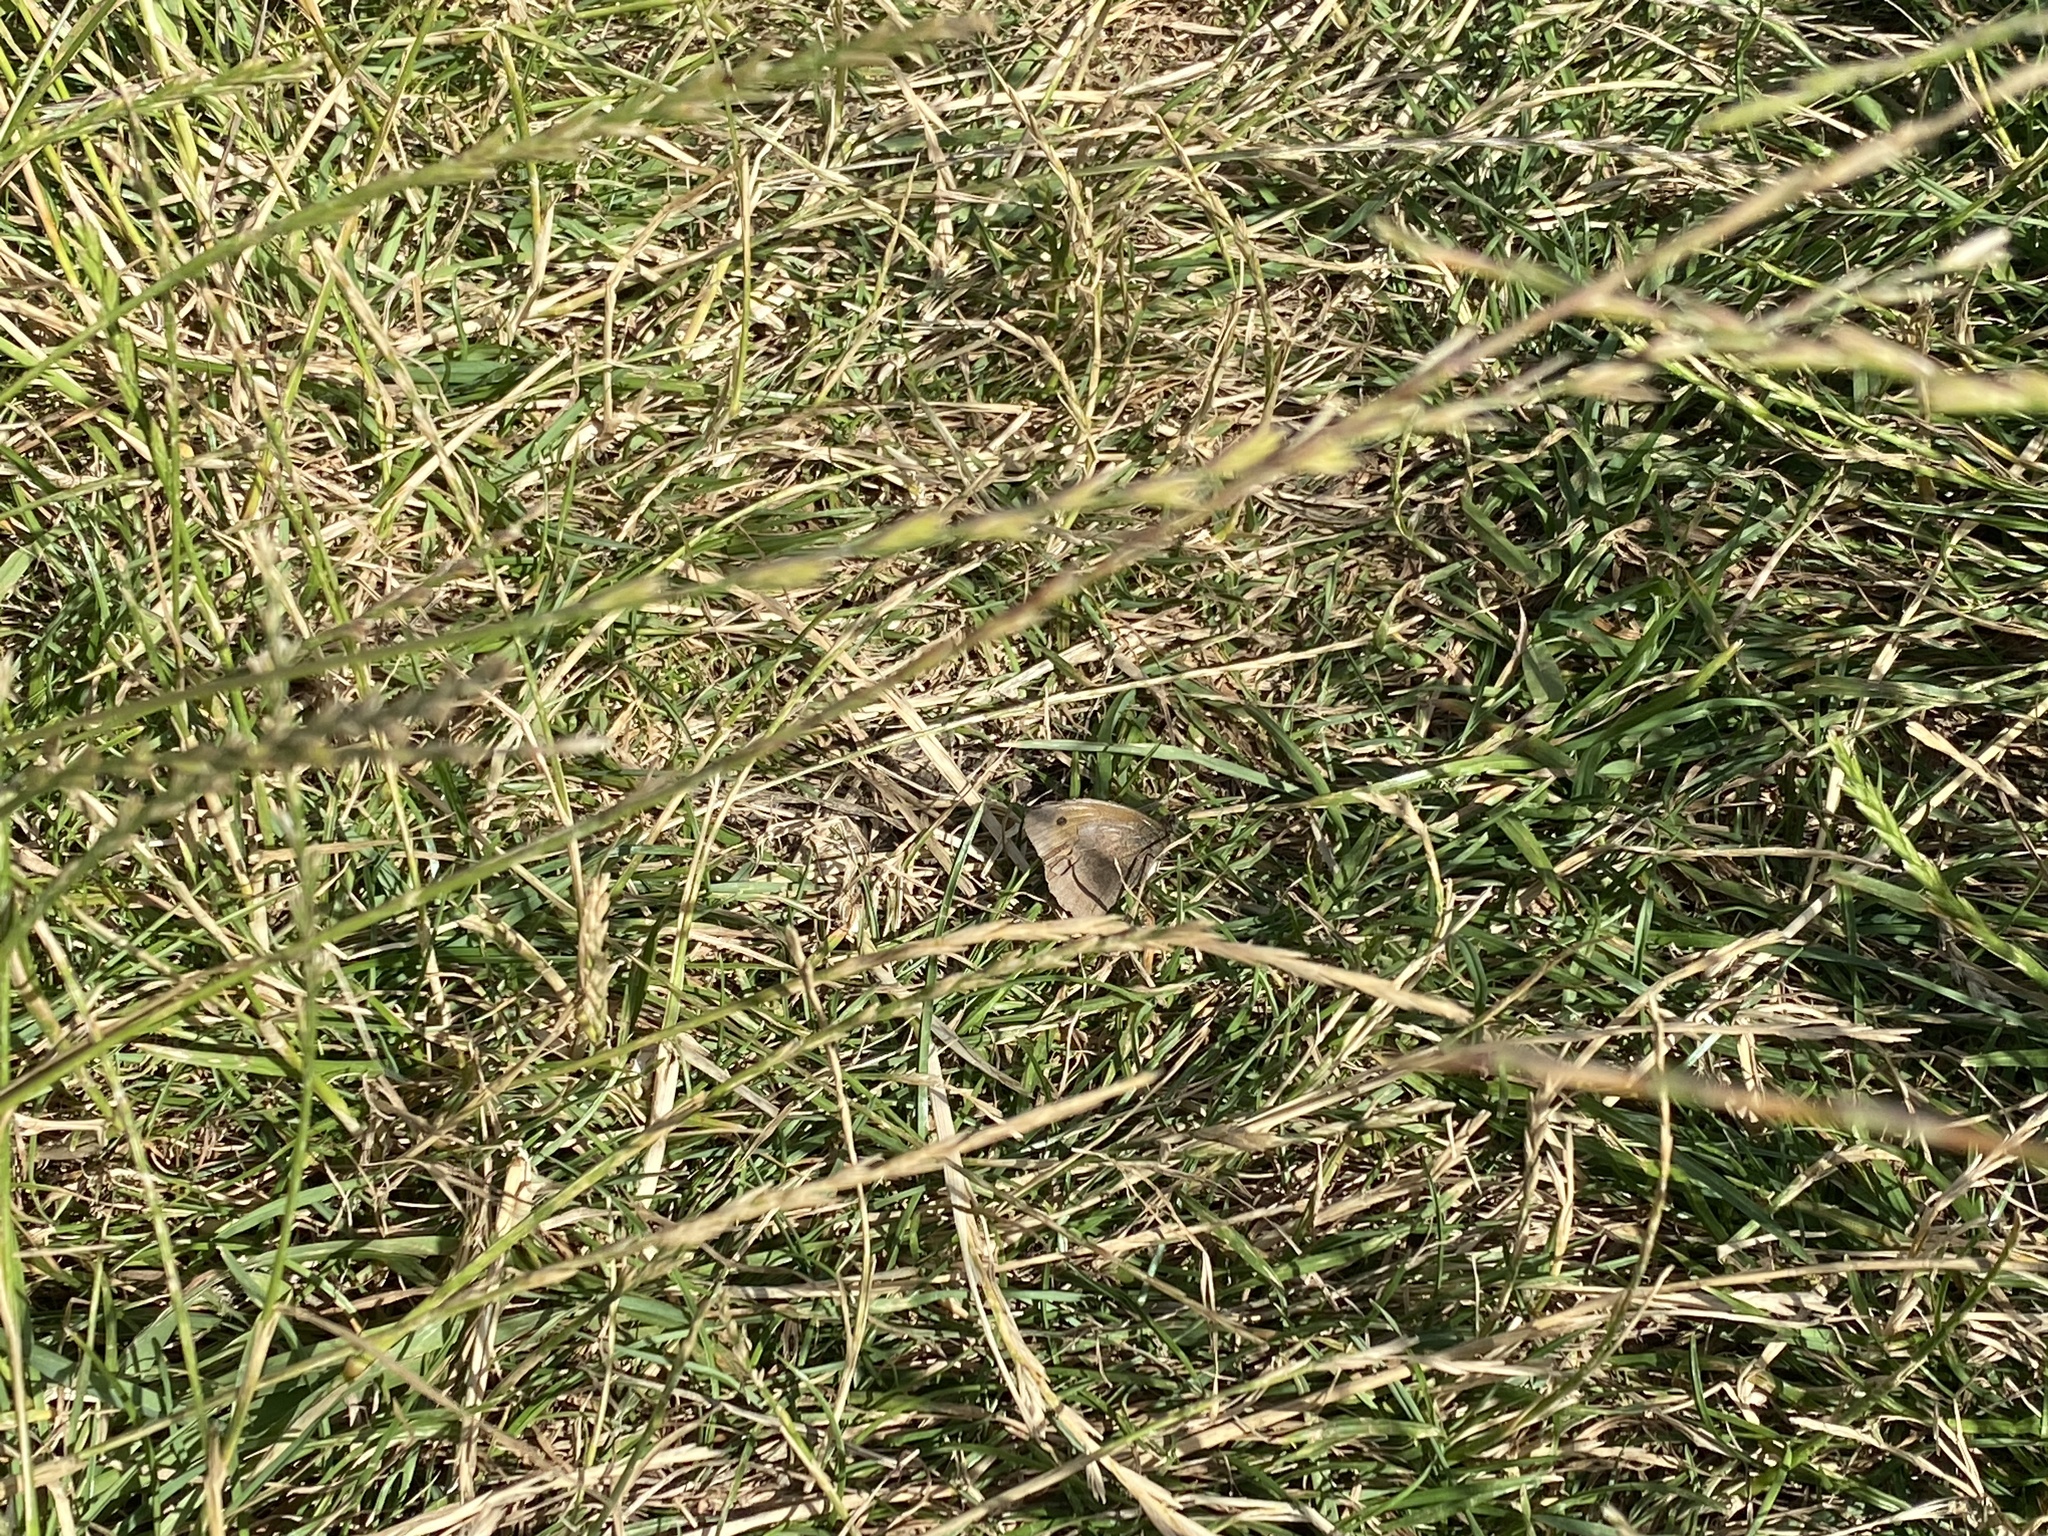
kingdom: Animalia
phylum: Arthropoda
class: Insecta
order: Lepidoptera
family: Nymphalidae
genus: Maniola
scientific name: Maniola jurtina
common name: Meadow brown
